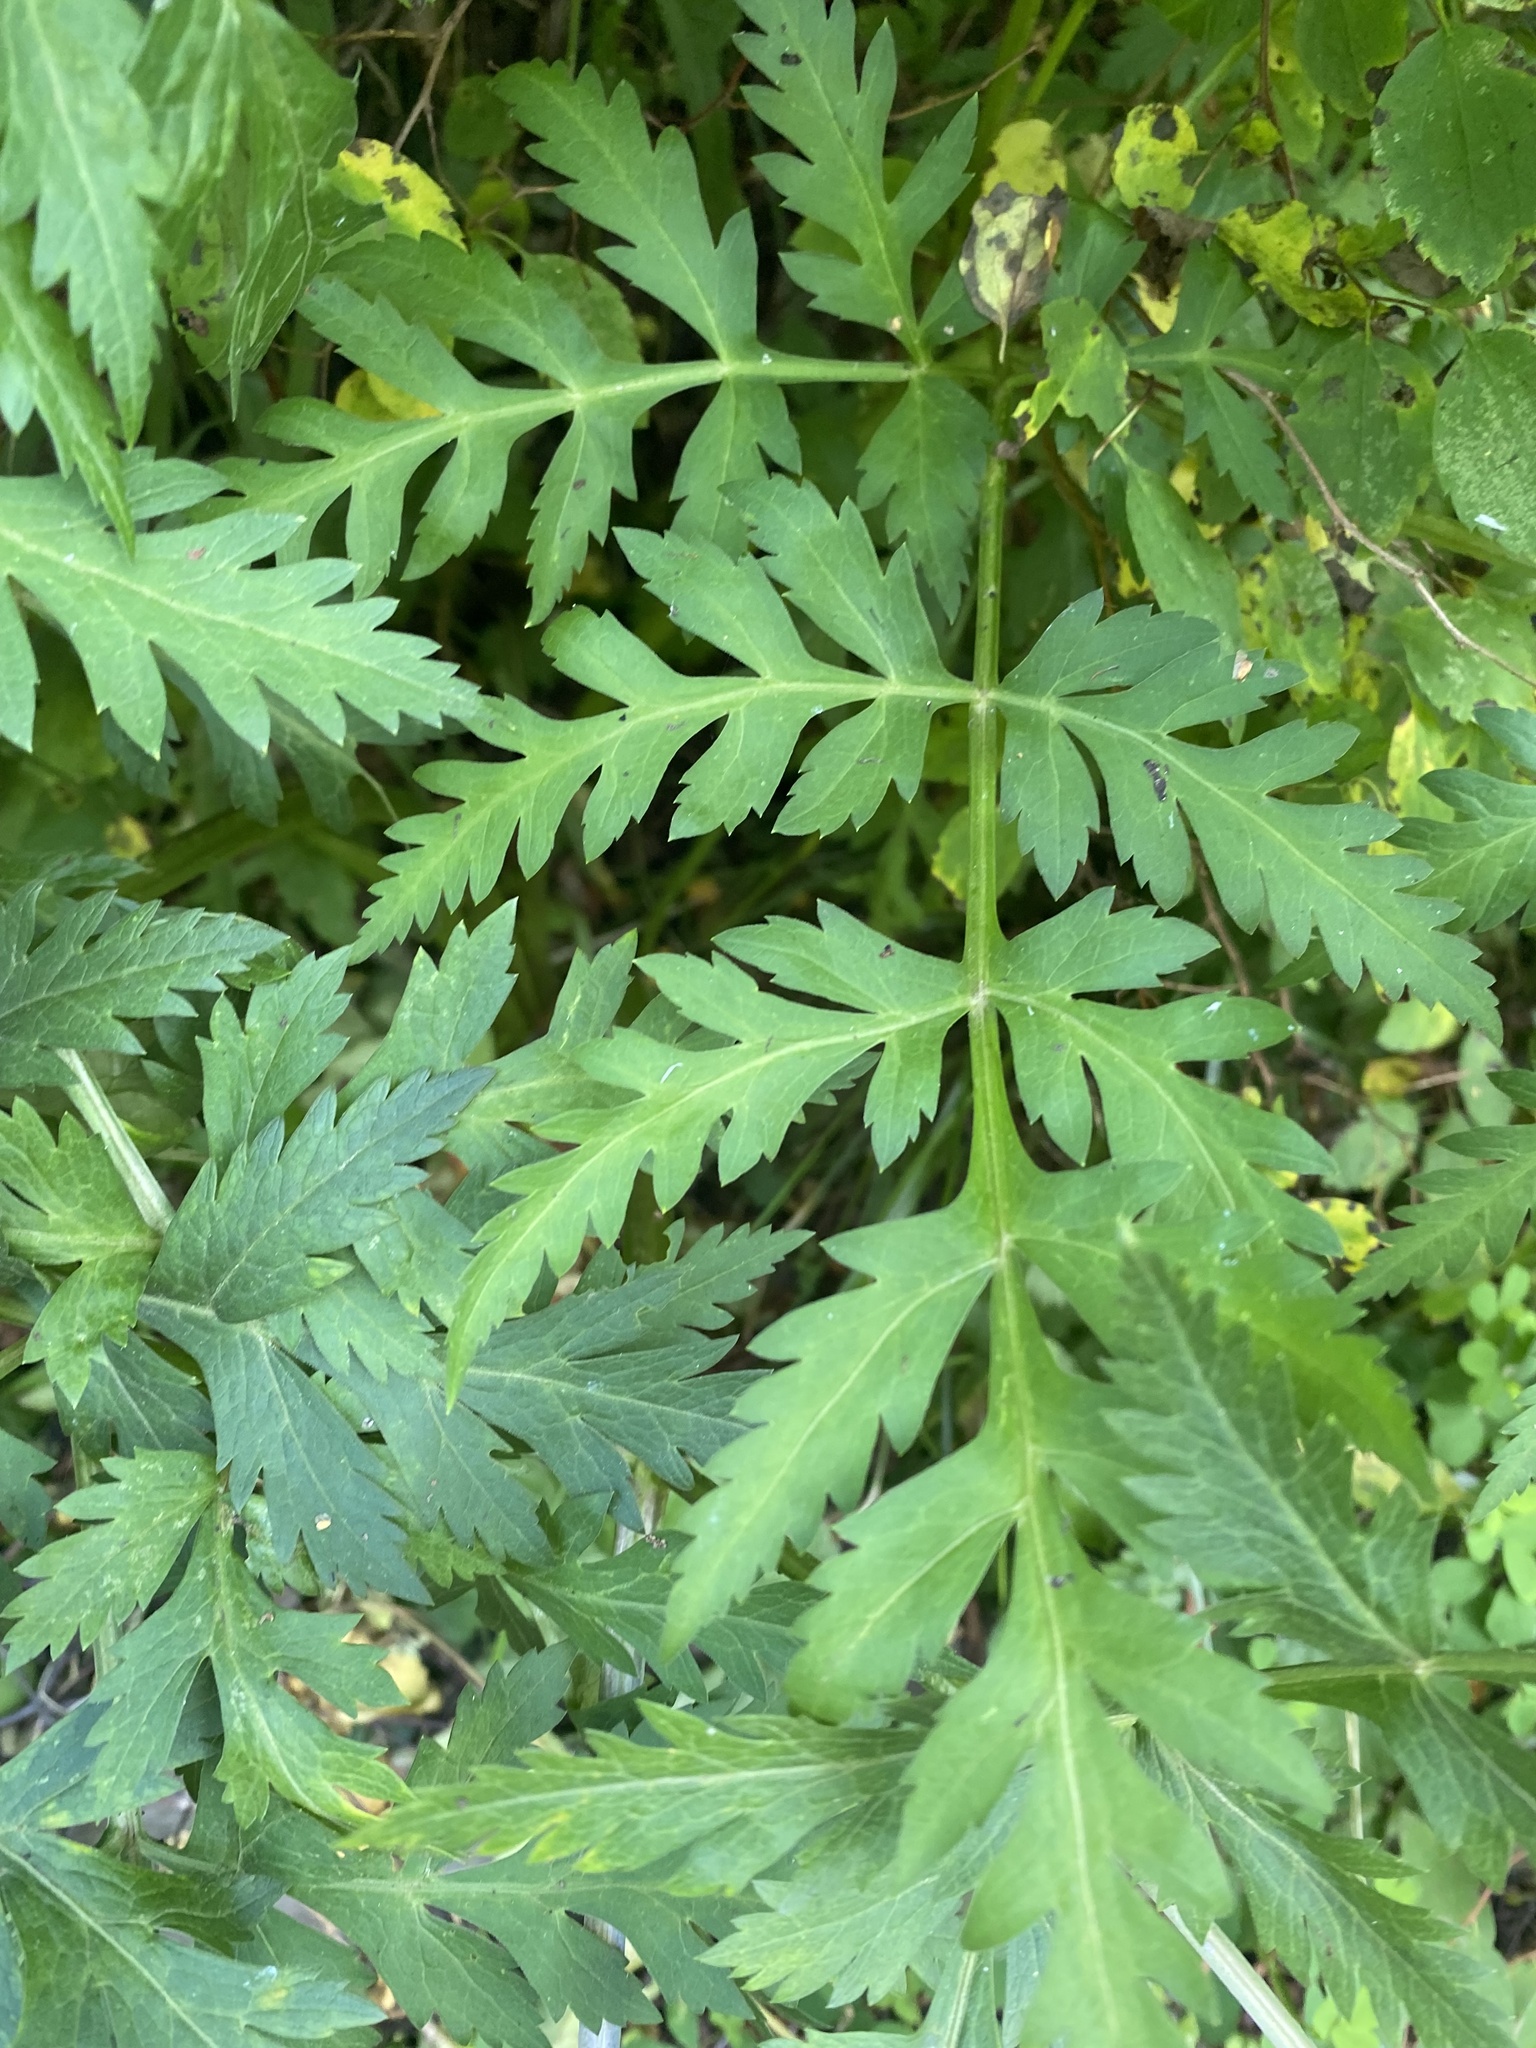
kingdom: Plantae
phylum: Tracheophyta
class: Magnoliopsida
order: Apiales
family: Apiaceae
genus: Pleurospermum
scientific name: Pleurospermum uralense
